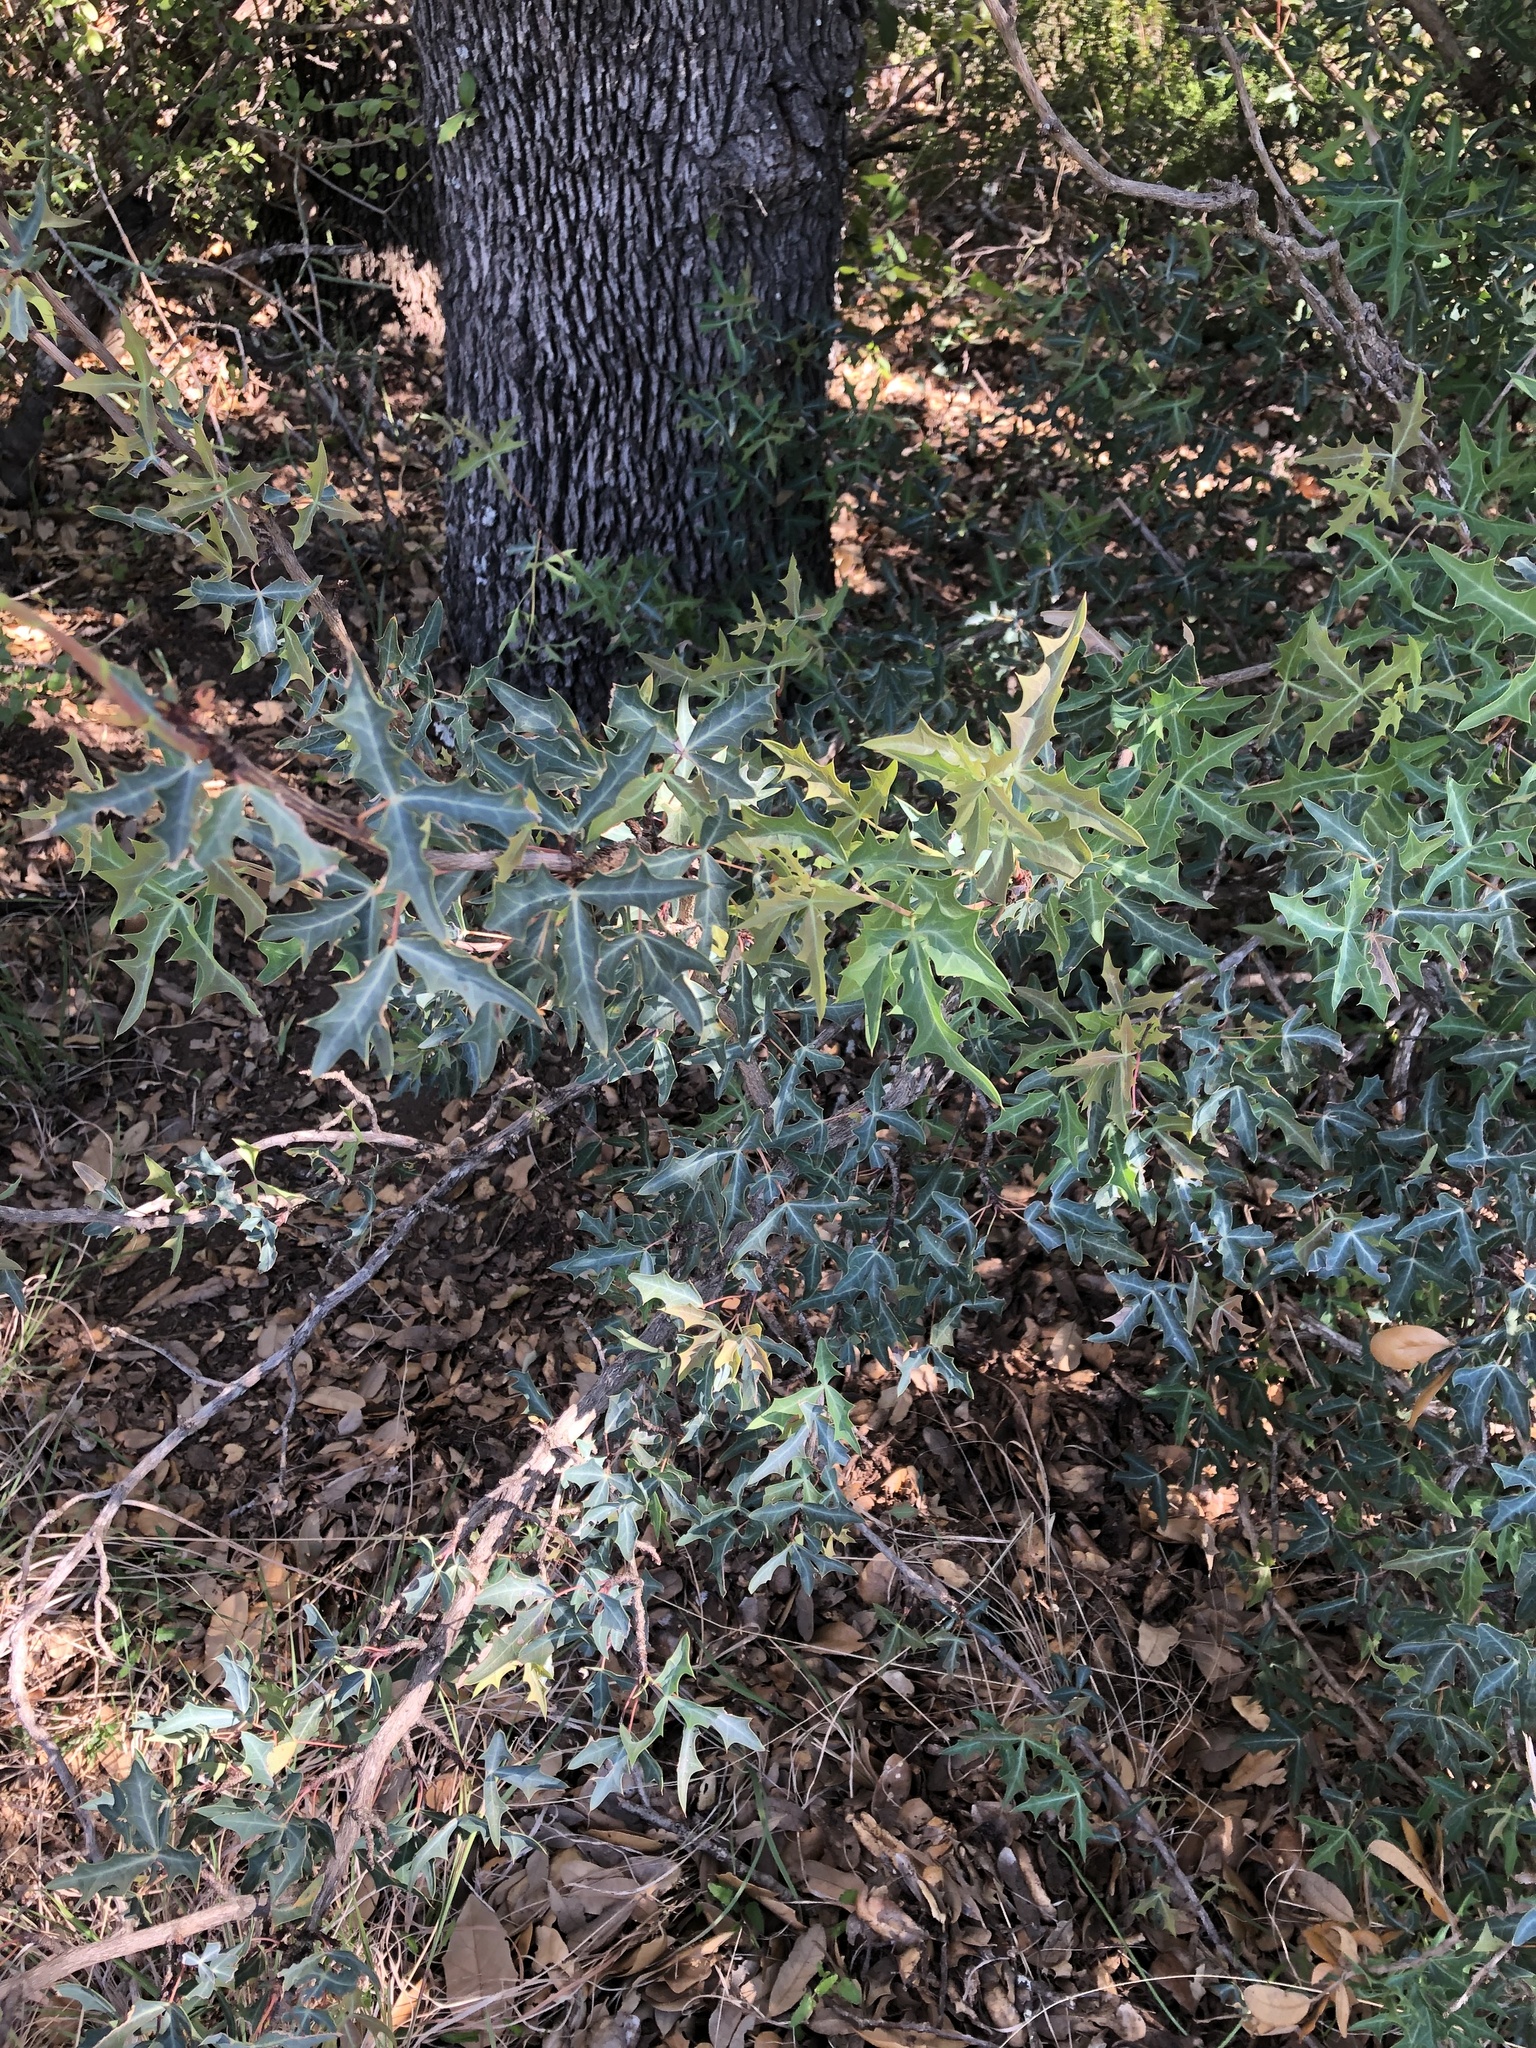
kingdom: Plantae
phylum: Tracheophyta
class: Magnoliopsida
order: Ranunculales
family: Berberidaceae
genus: Alloberberis
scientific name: Alloberberis trifoliolata
